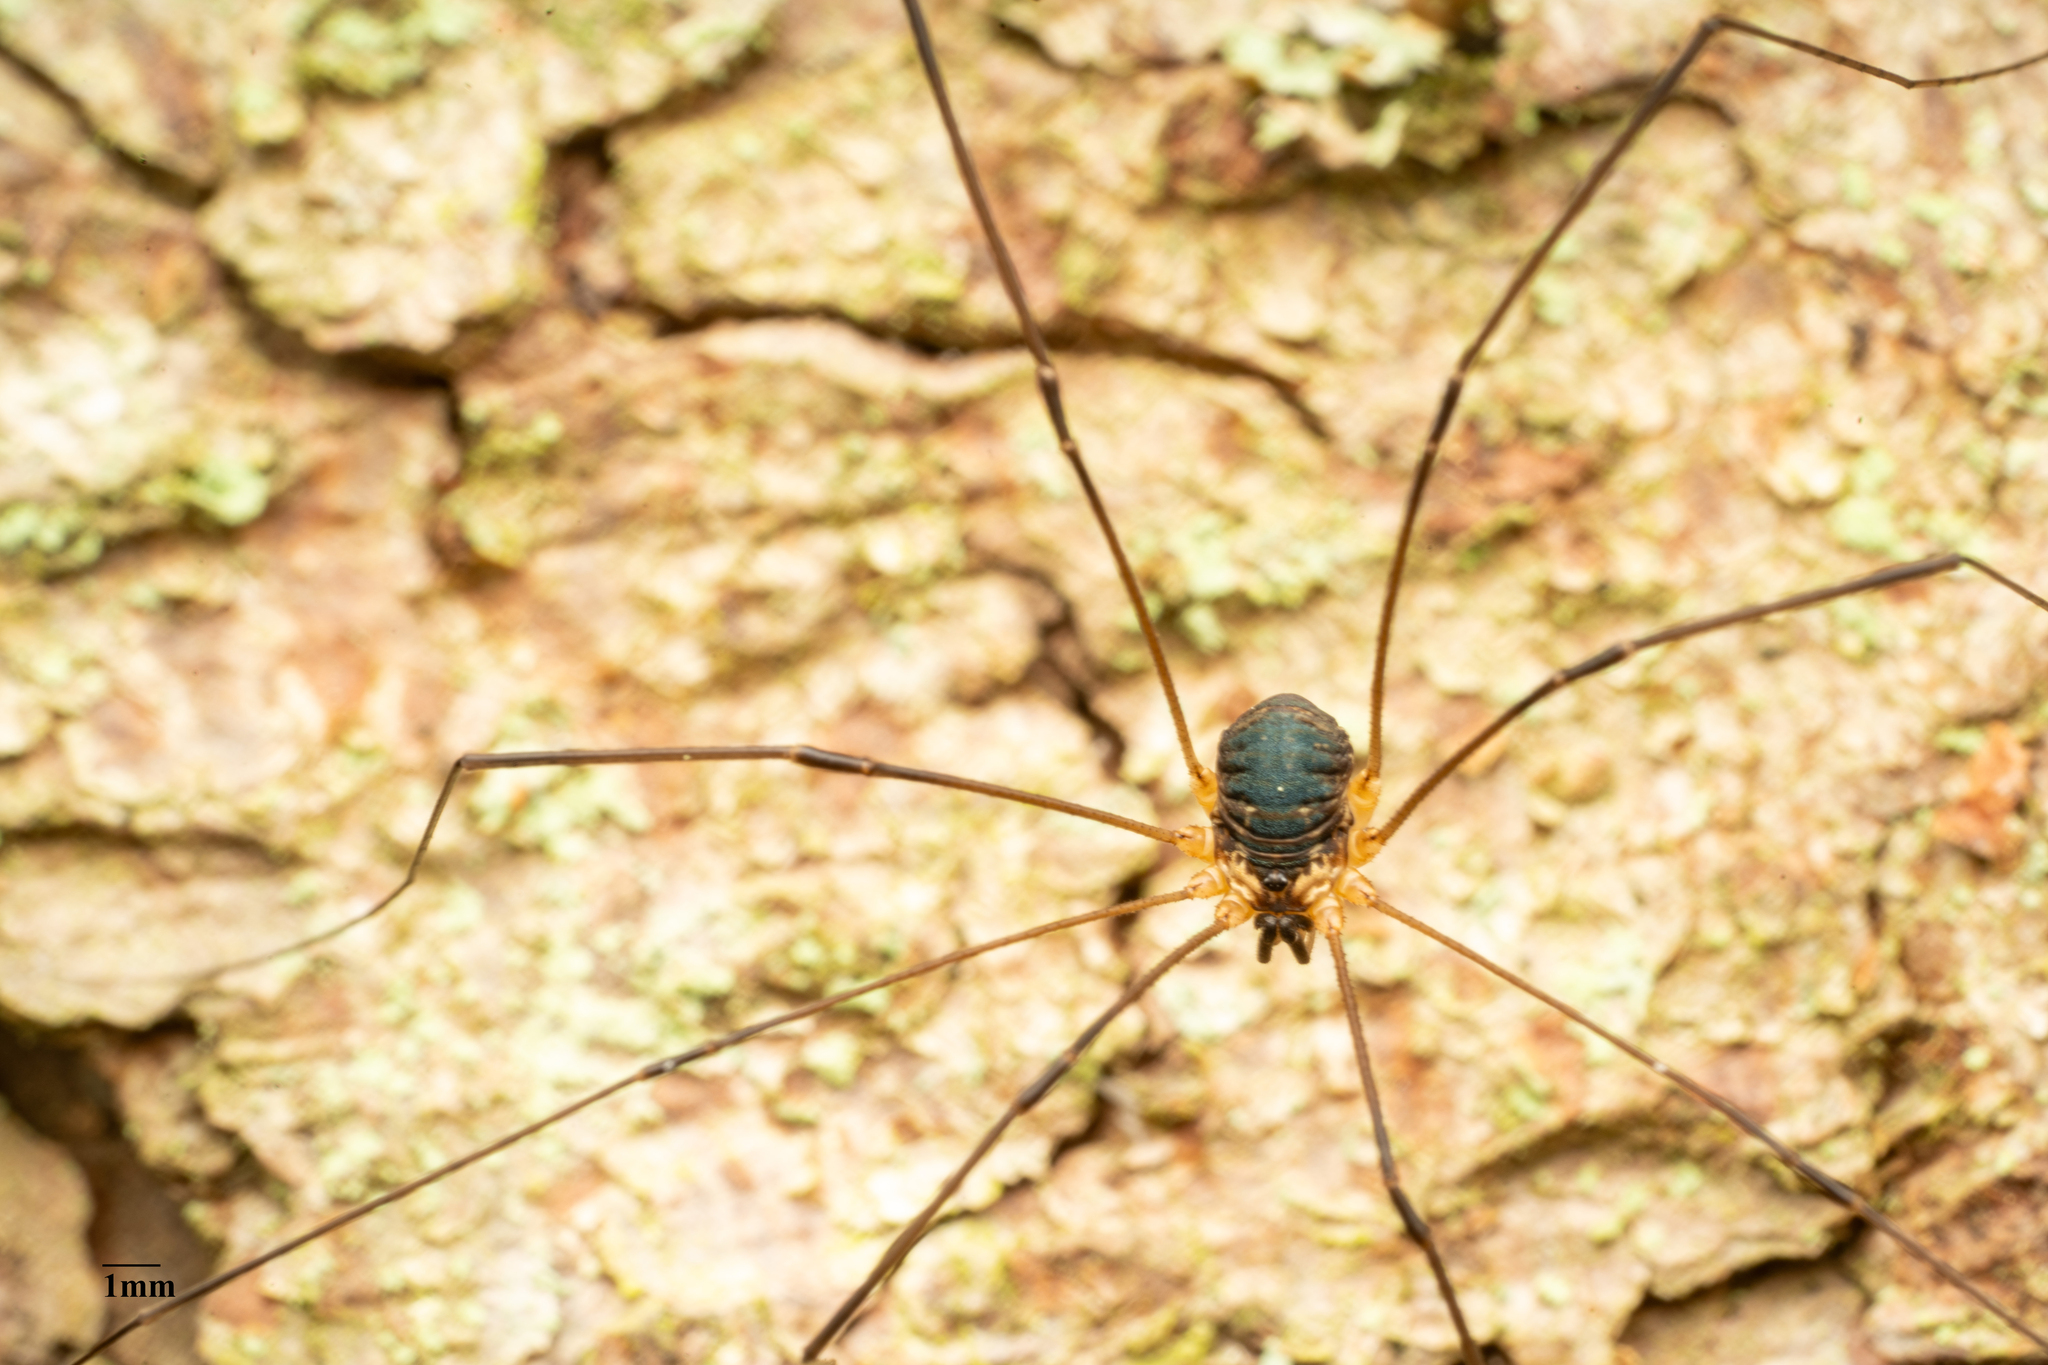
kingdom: Animalia
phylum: Arthropoda
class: Arachnida
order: Opiliones
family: Sclerosomatidae
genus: Leiobunum
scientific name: Leiobunum gracile
